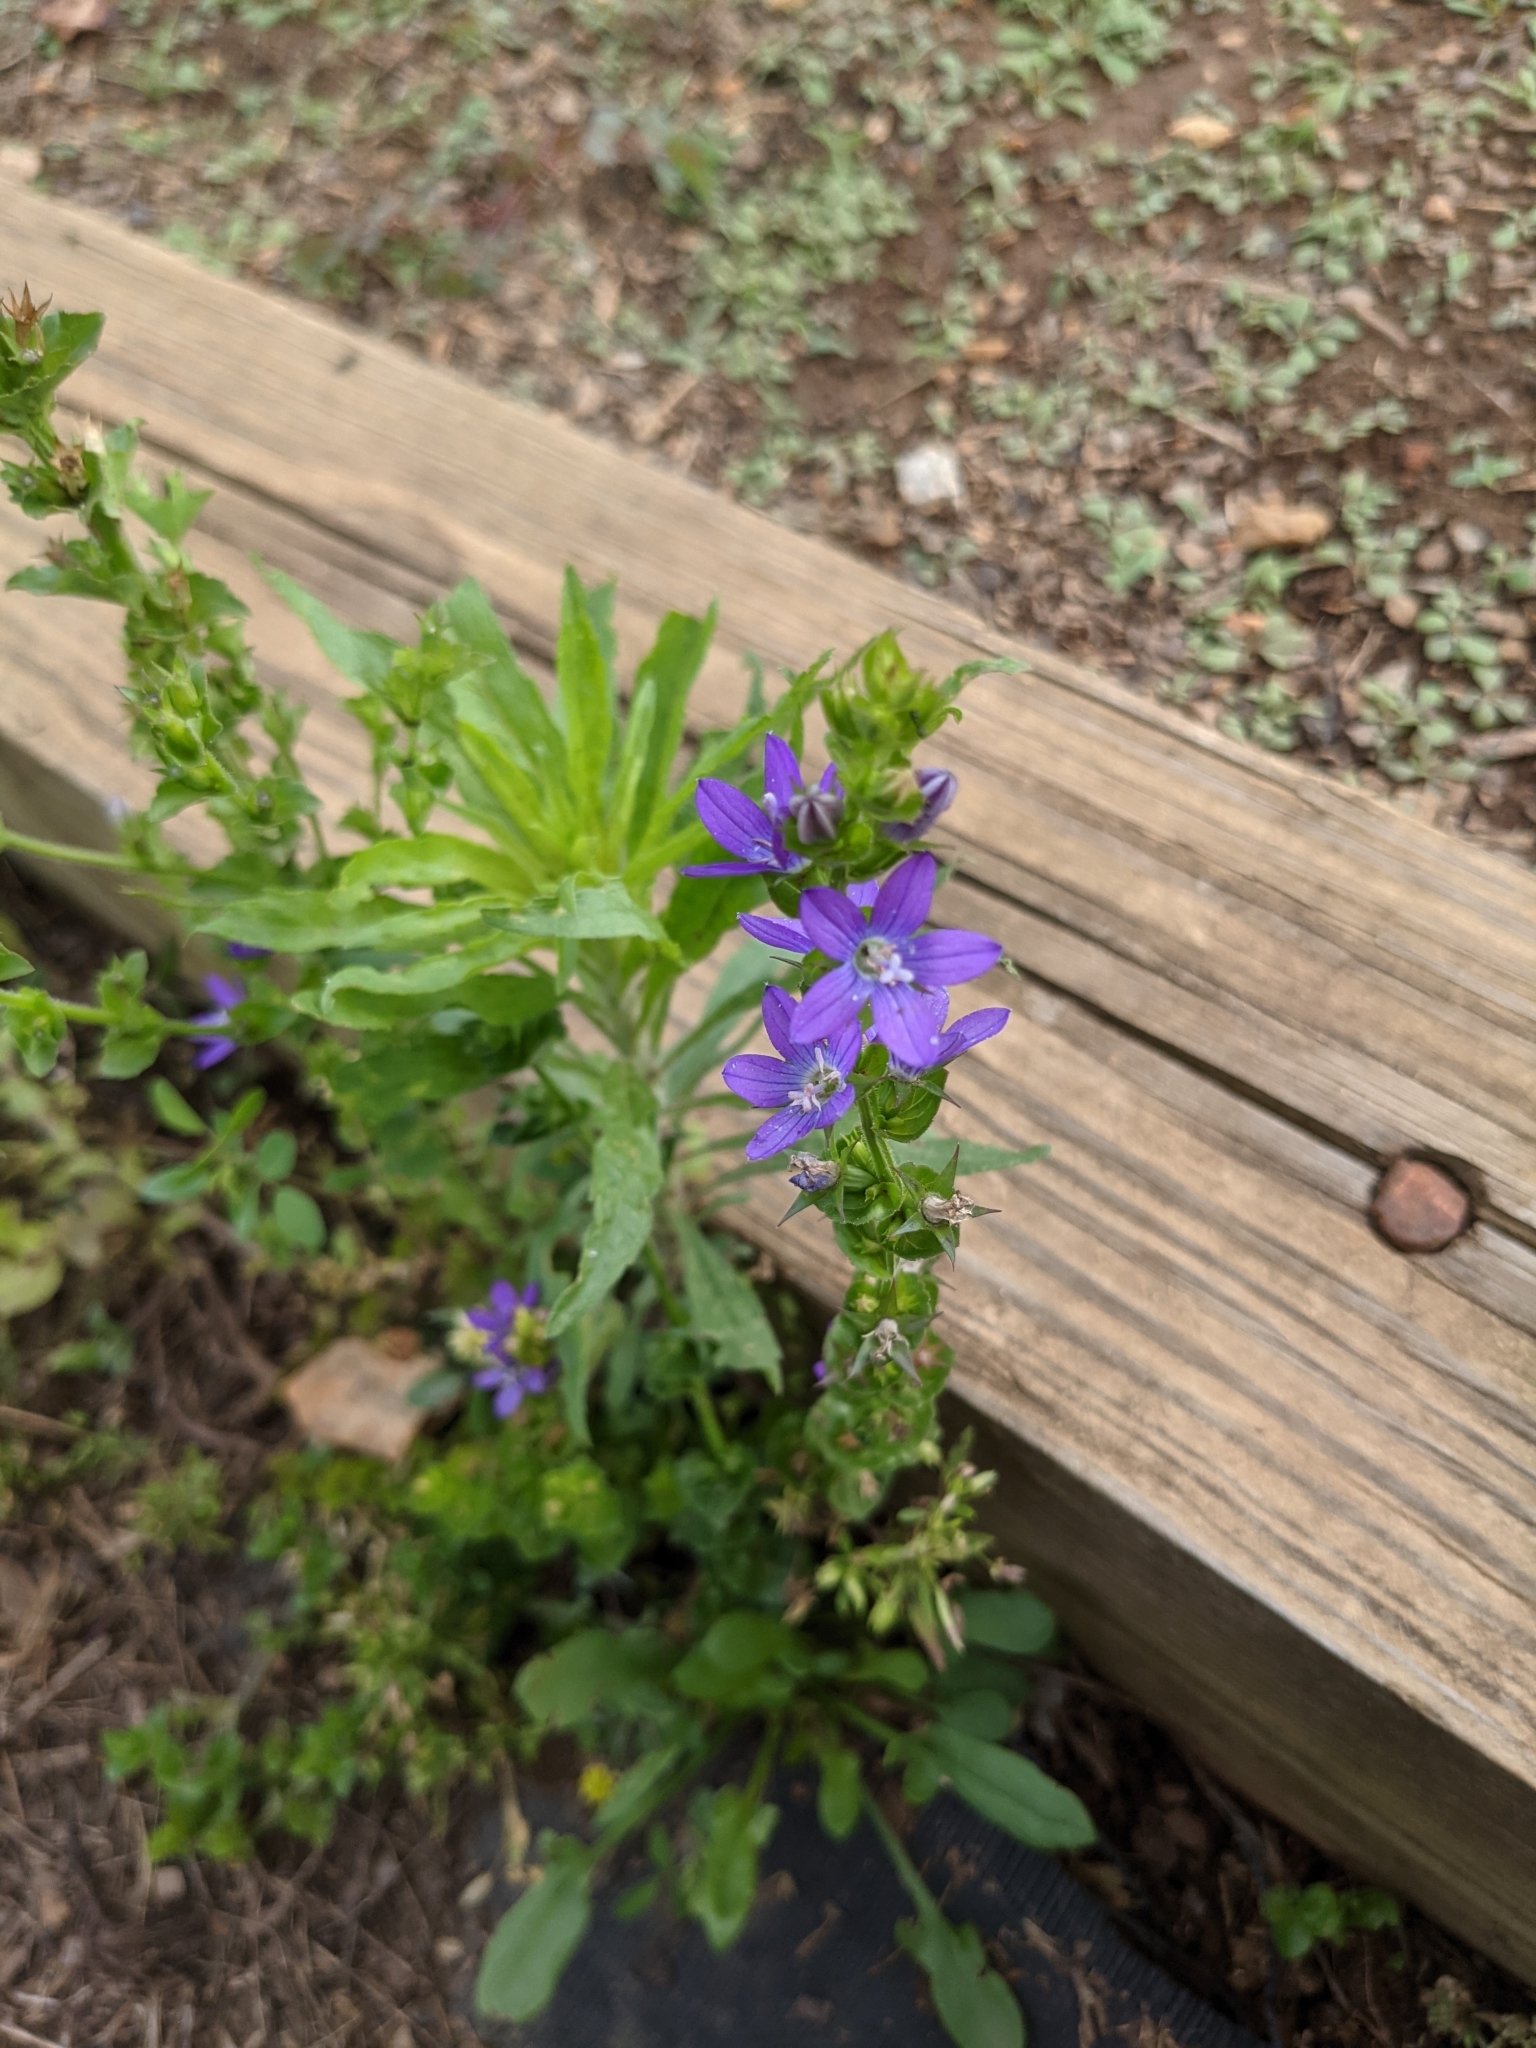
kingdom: Plantae
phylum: Tracheophyta
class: Magnoliopsida
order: Asterales
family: Campanulaceae
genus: Triodanis
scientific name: Triodanis perfoliata
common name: Clasping venus' looking-glass
